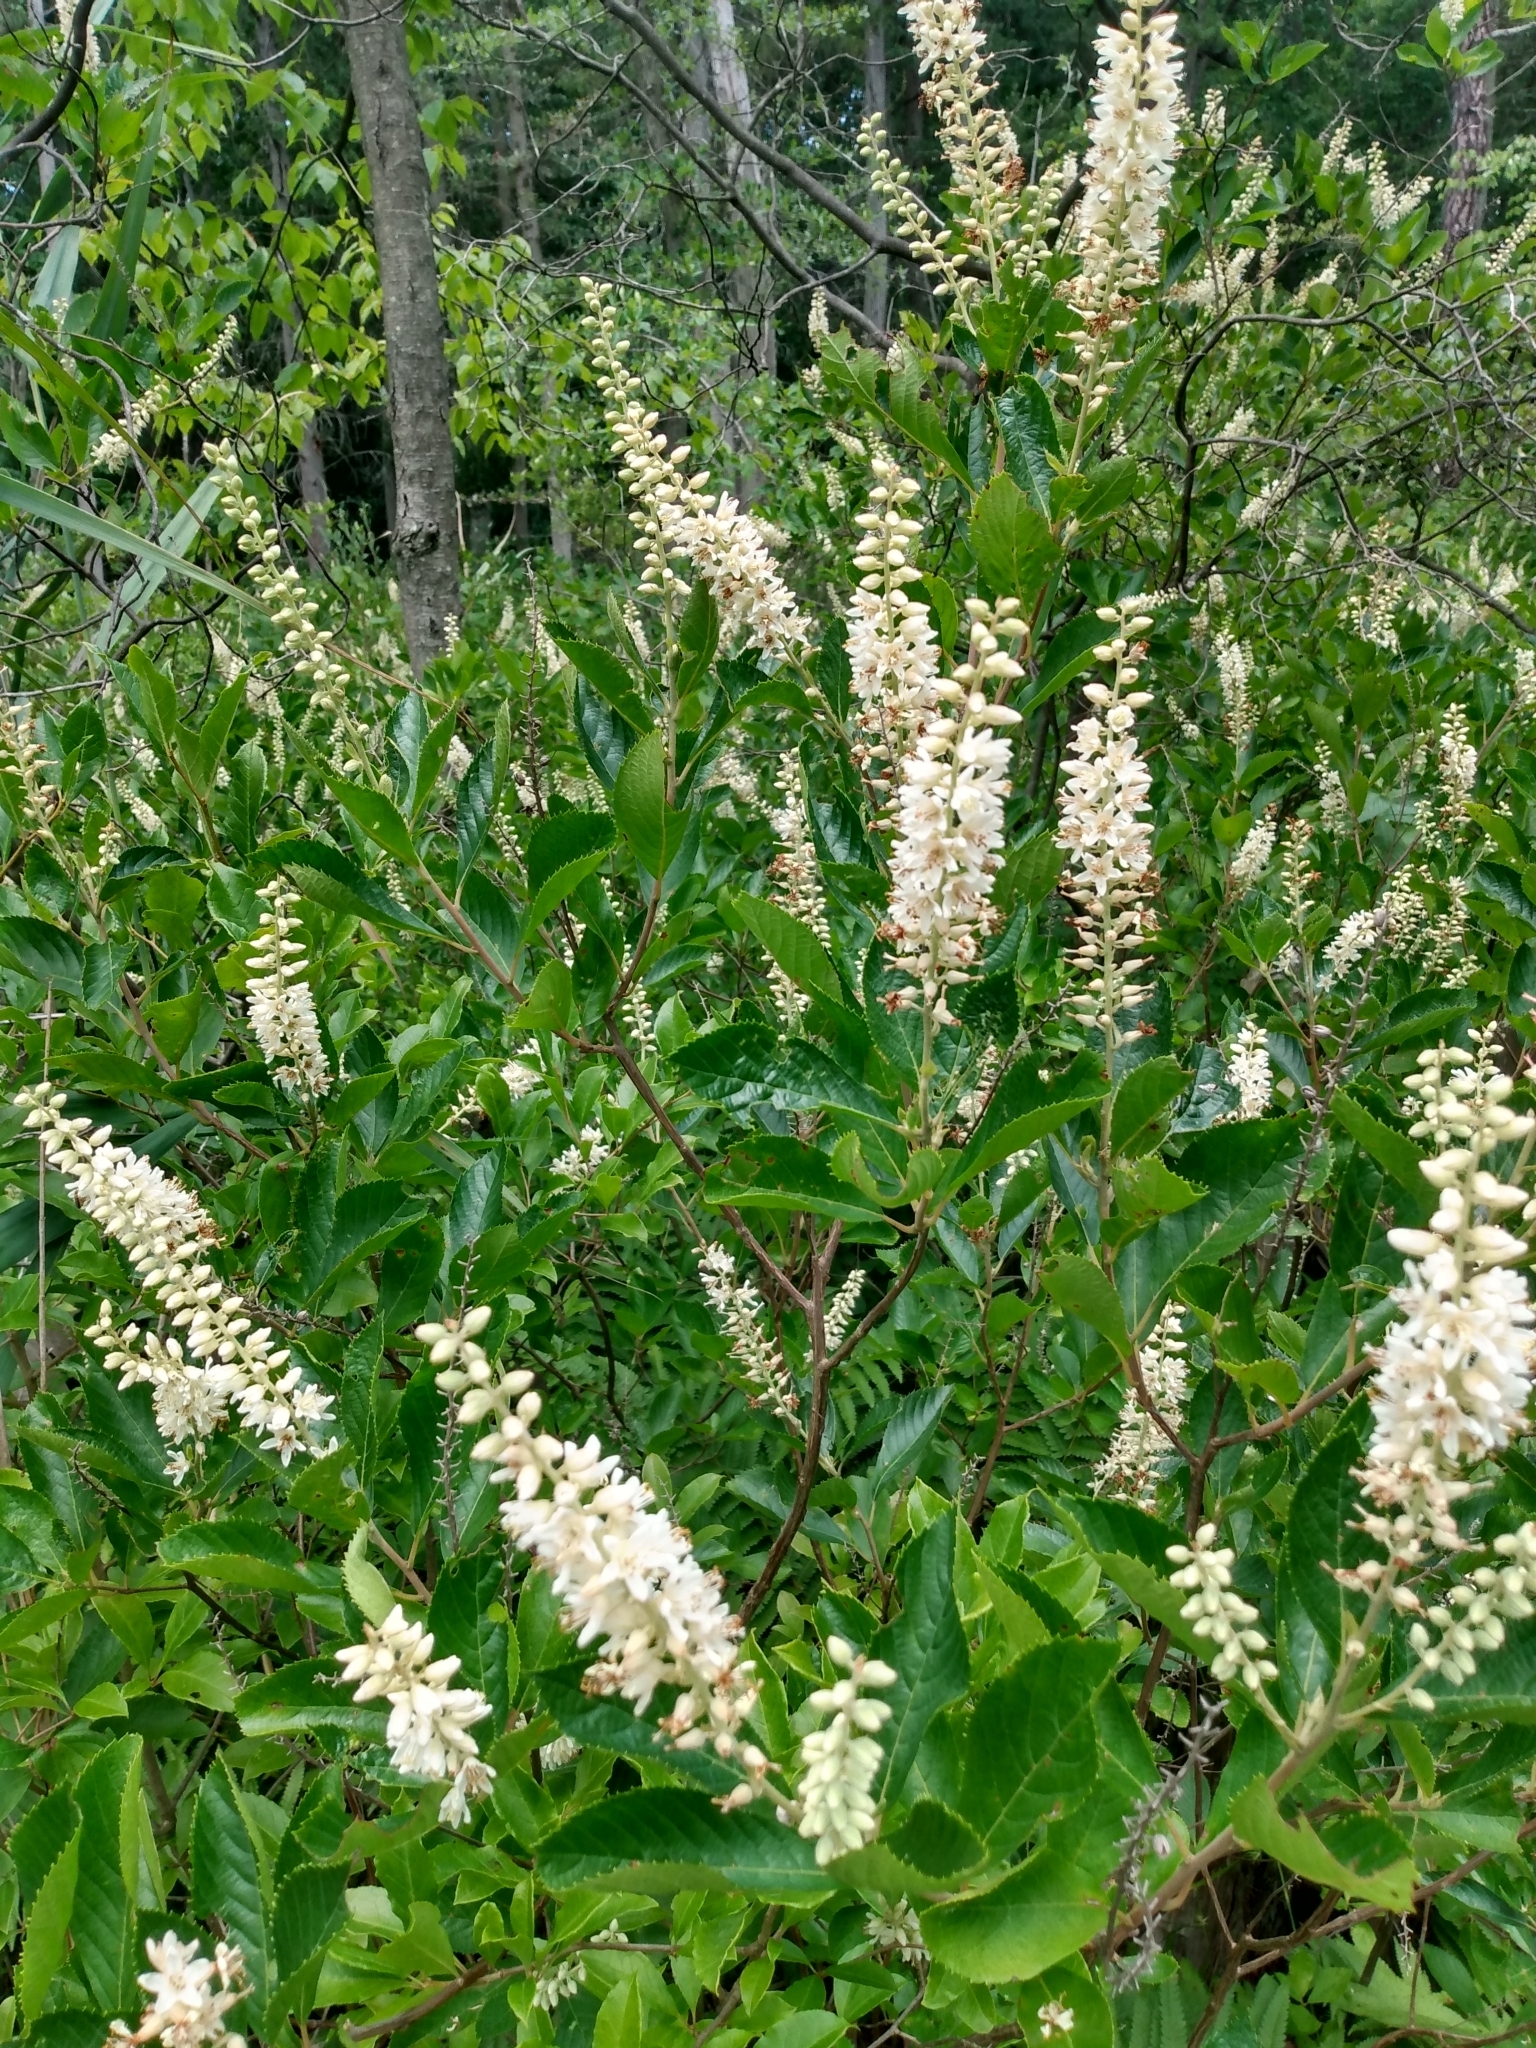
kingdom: Plantae
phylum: Tracheophyta
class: Magnoliopsida
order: Ericales
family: Clethraceae
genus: Clethra
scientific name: Clethra alnifolia
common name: Sweet pepperbush
